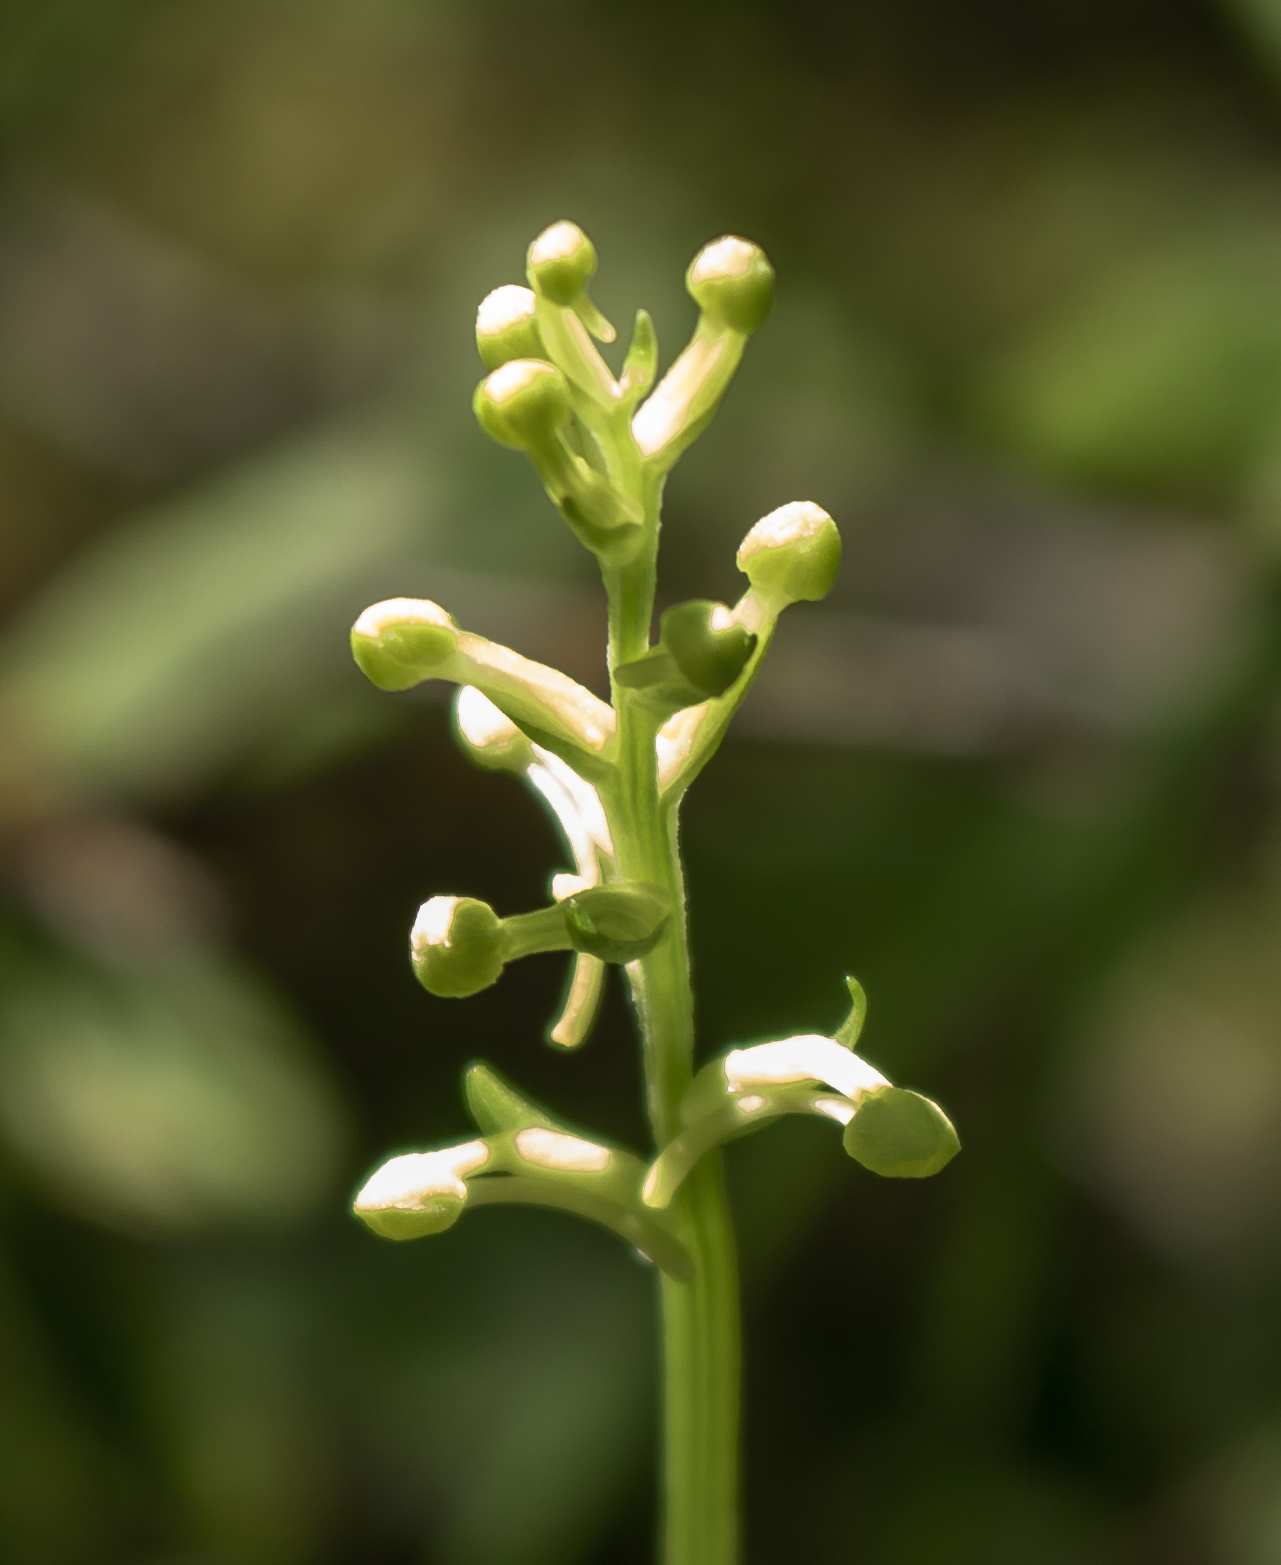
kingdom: Plantae
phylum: Tracheophyta
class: Liliopsida
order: Asparagales
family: Orchidaceae
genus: Platanthera
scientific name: Platanthera clavellata
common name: Club-spur orchid
